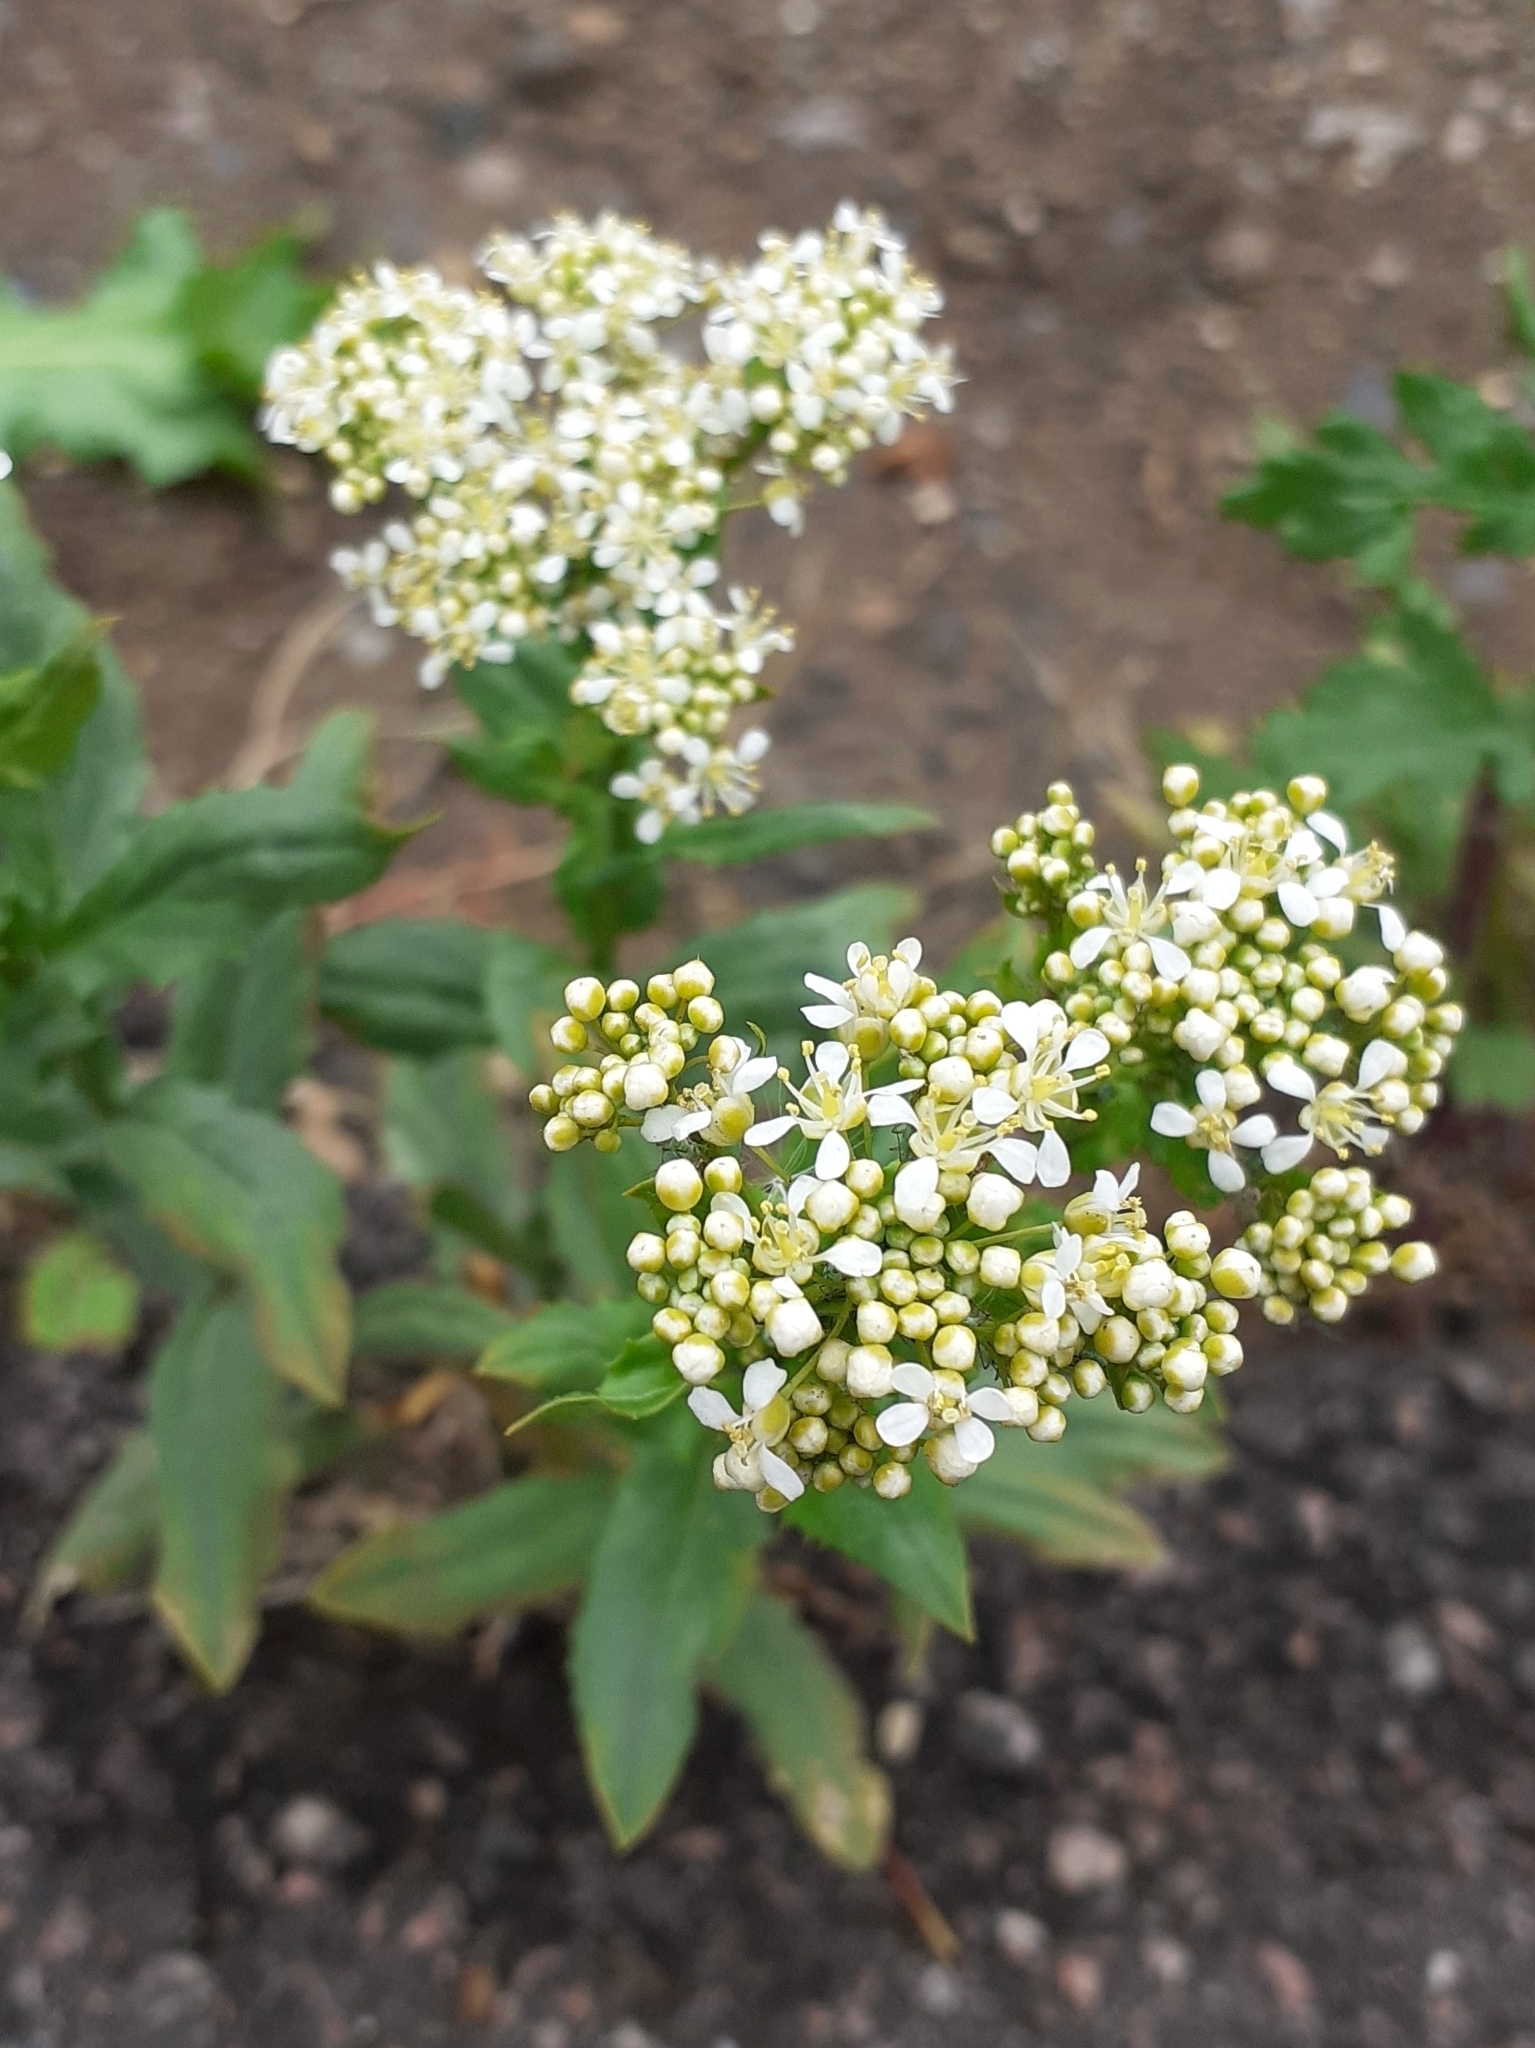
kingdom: Plantae
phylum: Tracheophyta
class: Magnoliopsida
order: Brassicales
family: Brassicaceae
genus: Lepidium
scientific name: Lepidium draba
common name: Hoary cress
